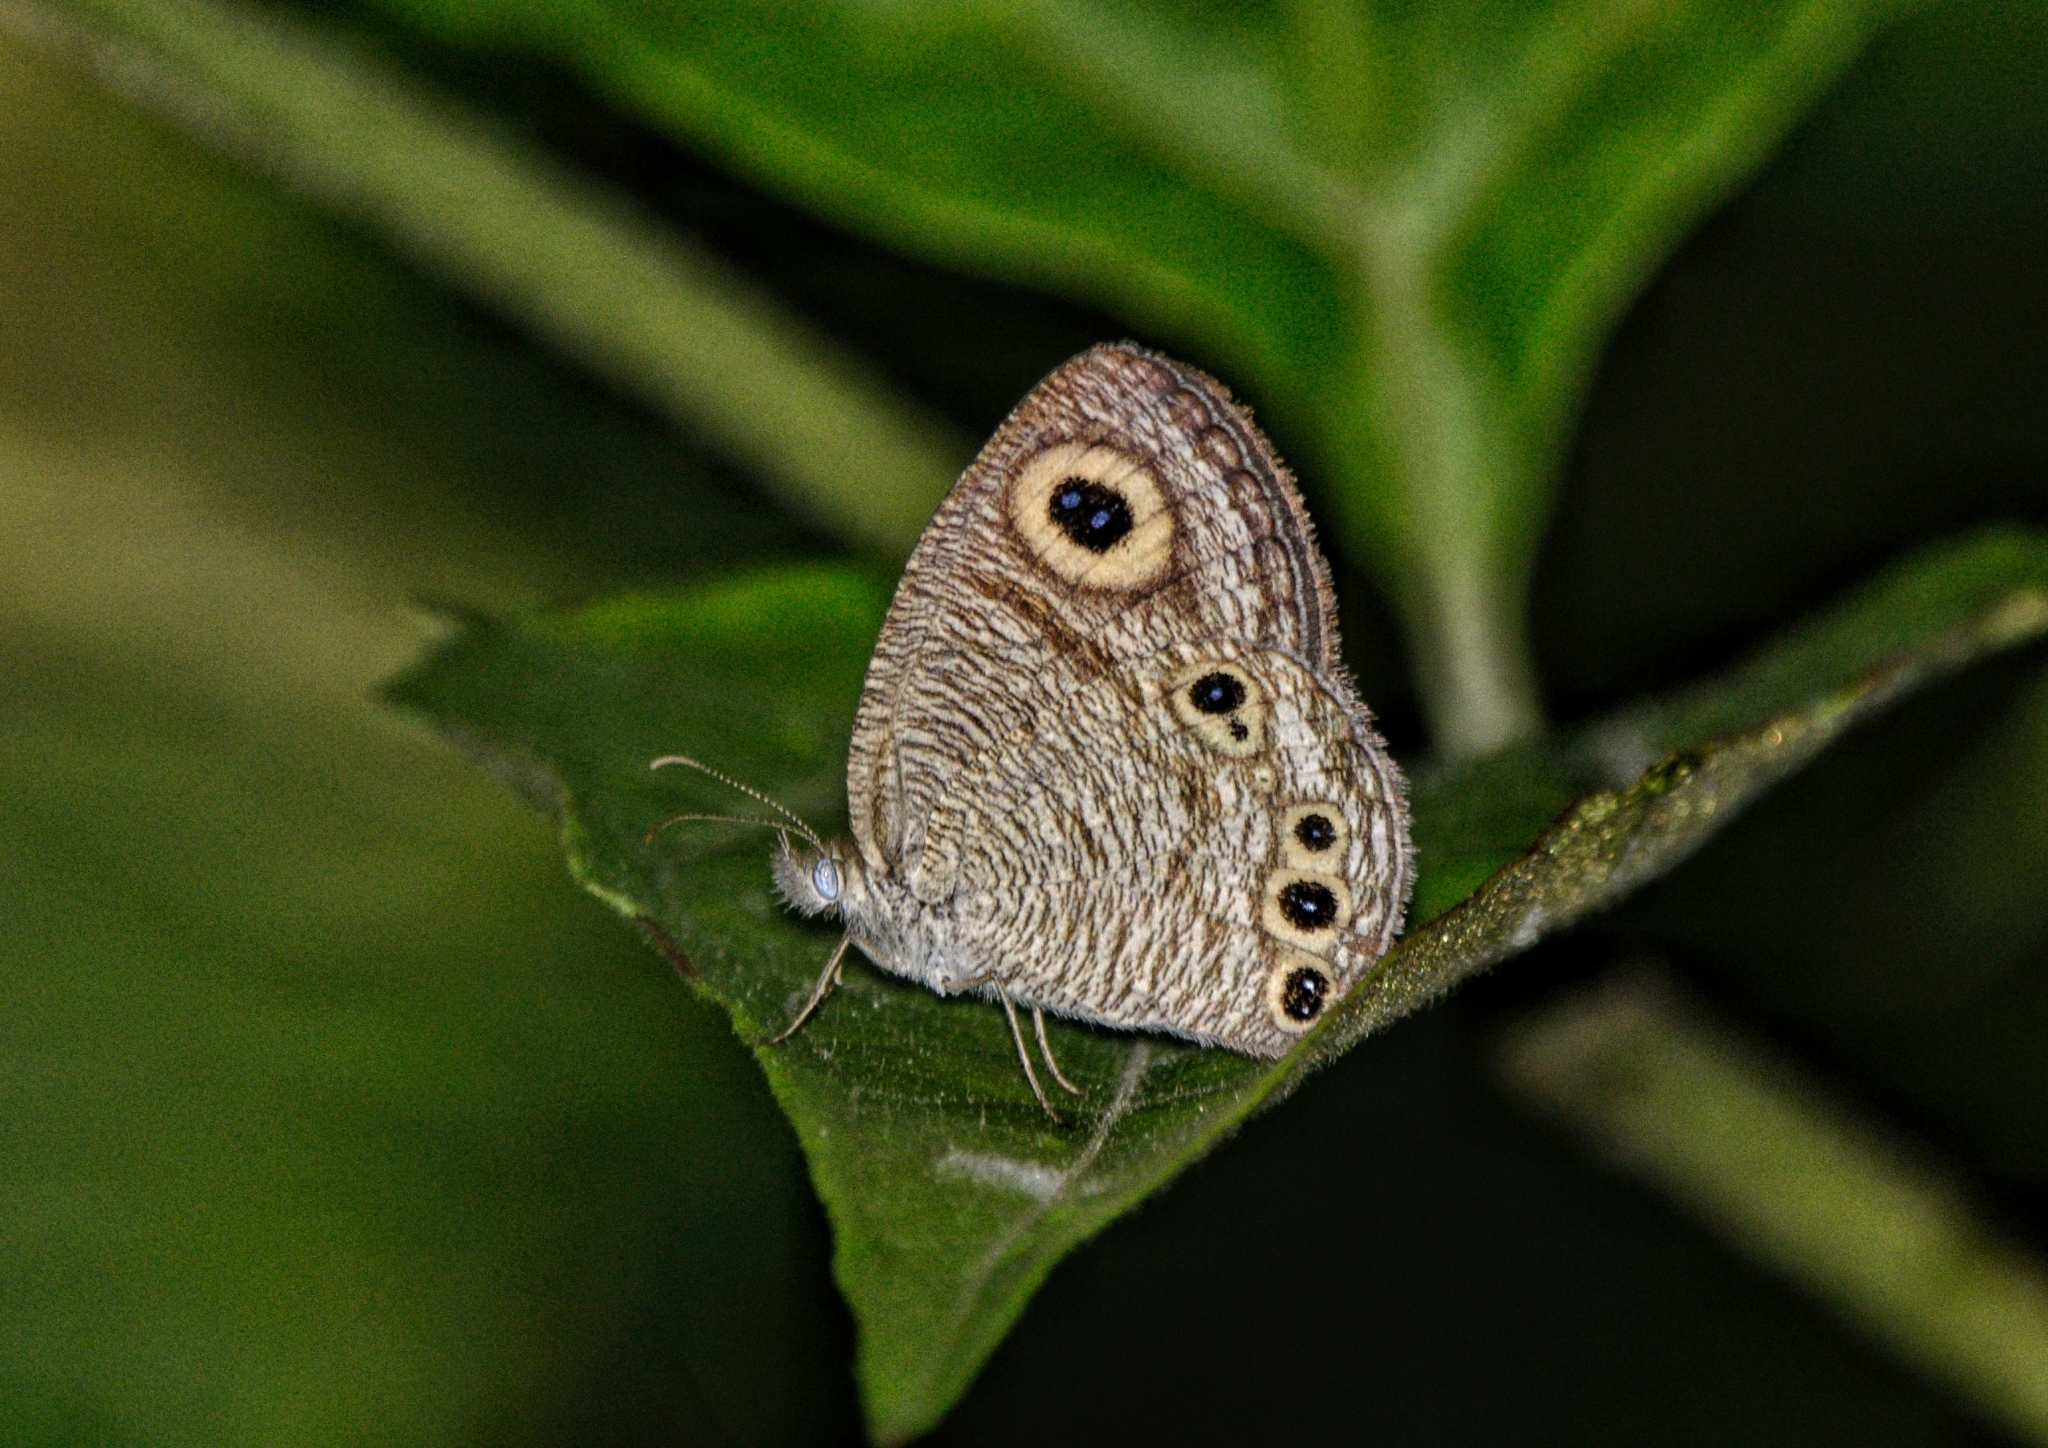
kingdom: Animalia
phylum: Arthropoda
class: Insecta
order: Lepidoptera
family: Nymphalidae
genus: Ypthima
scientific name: Ypthima huebneri
